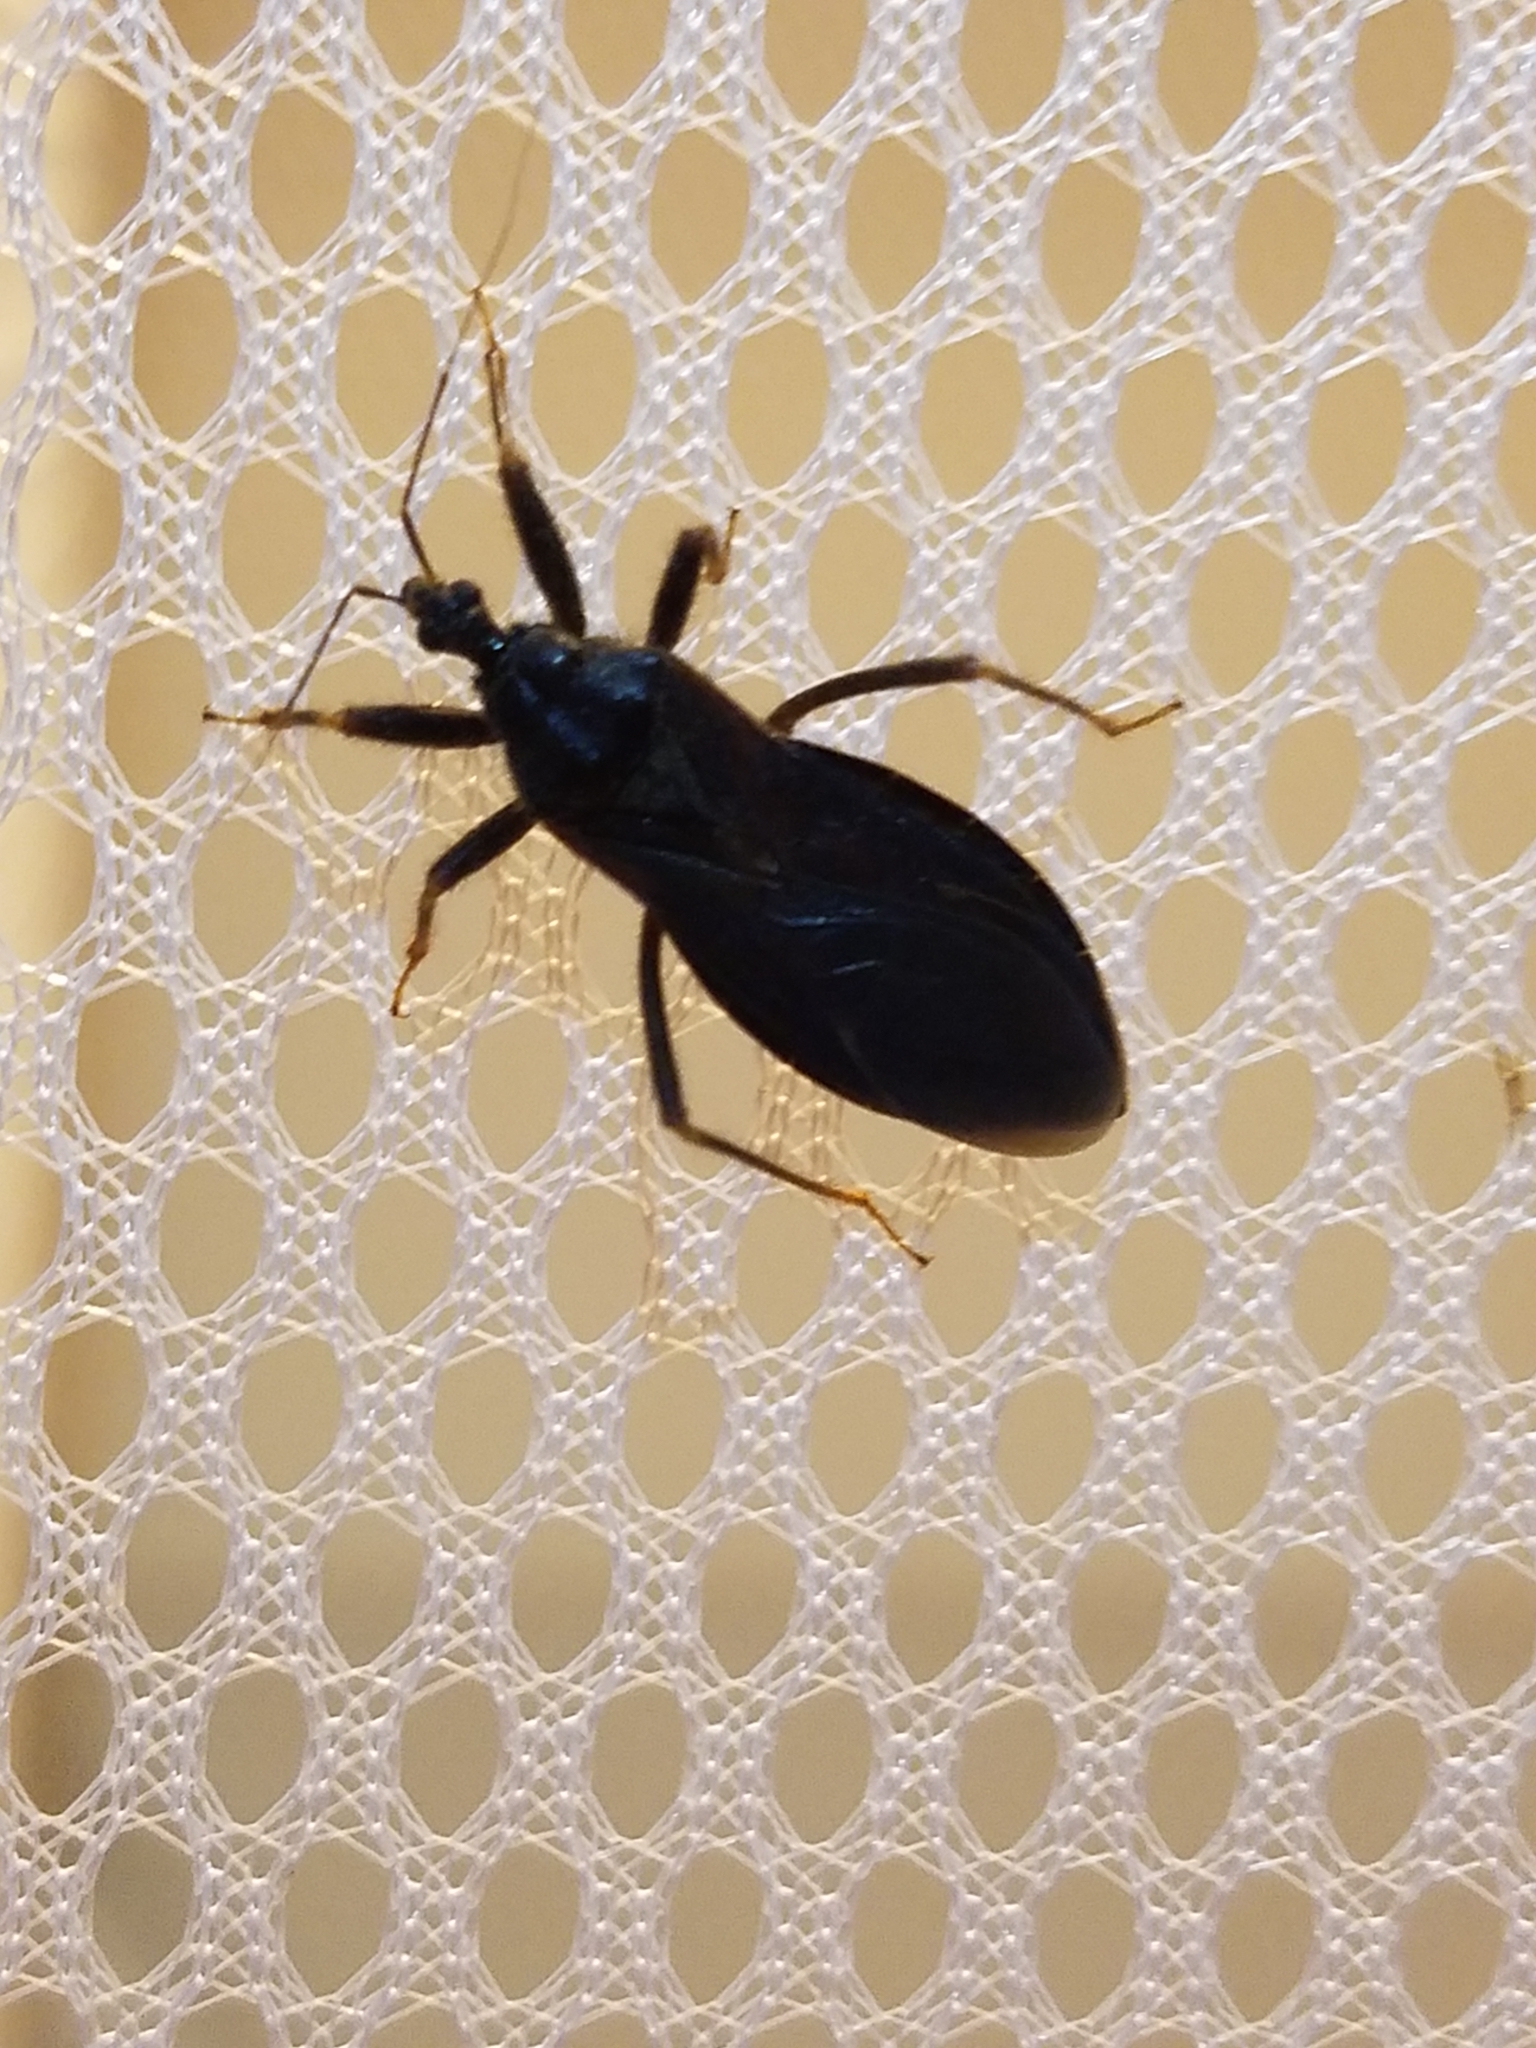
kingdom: Animalia
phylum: Arthropoda
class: Insecta
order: Hemiptera
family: Reduviidae
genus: Reduvius
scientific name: Reduvius personatus
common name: Masked hunter
